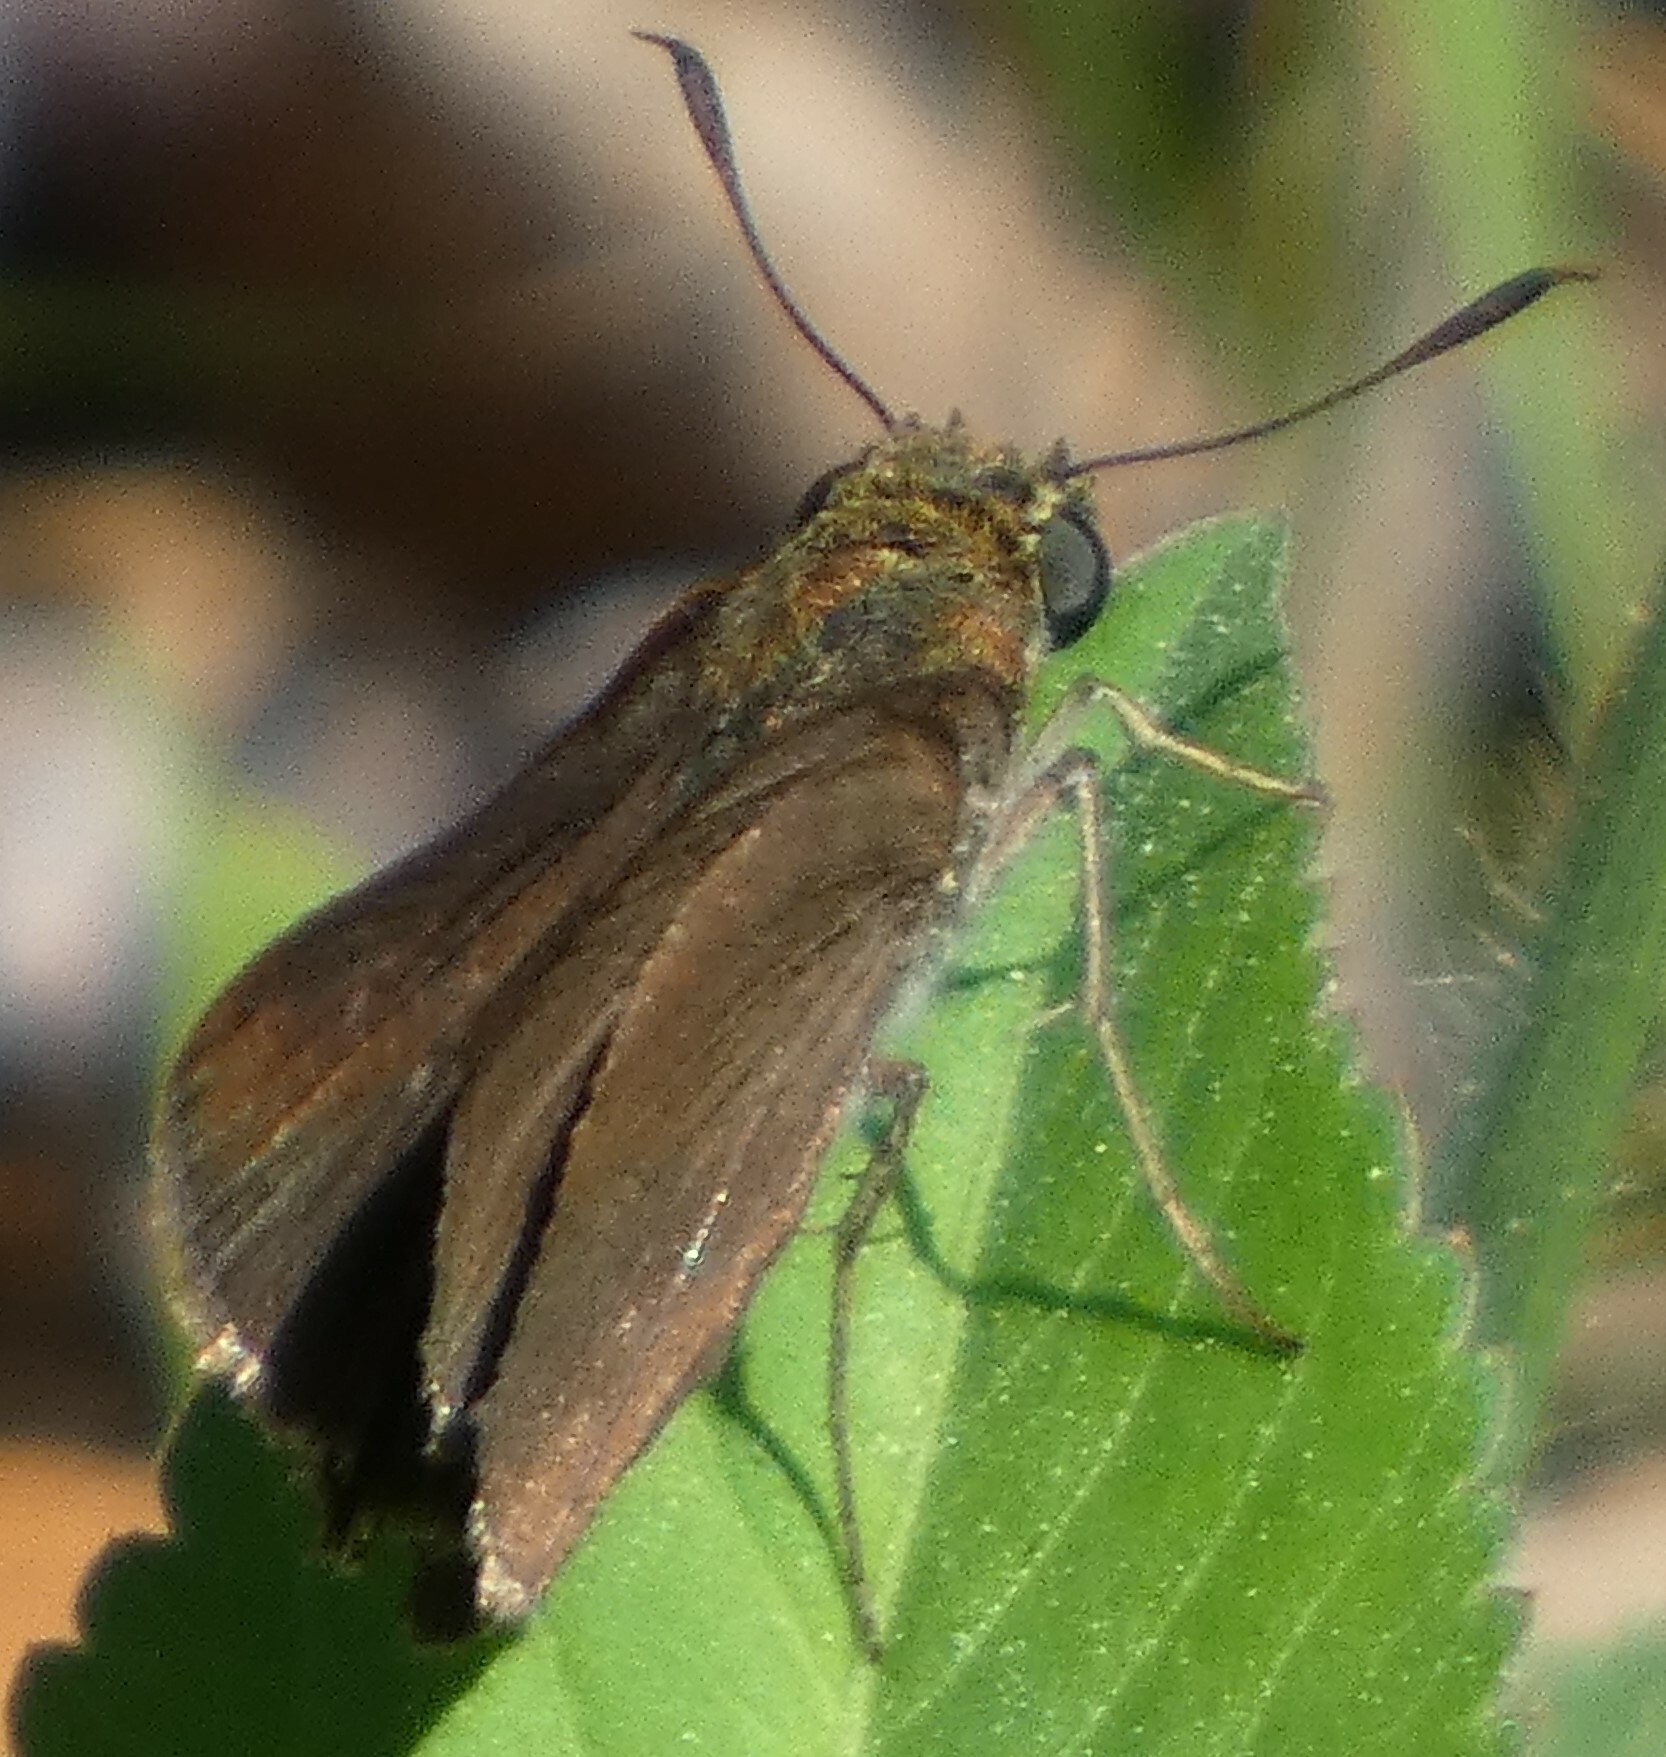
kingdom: Animalia
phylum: Arthropoda
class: Insecta
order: Lepidoptera
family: Hesperiidae
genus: Euphyes
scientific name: Euphyes vestris
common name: Dun skipper
